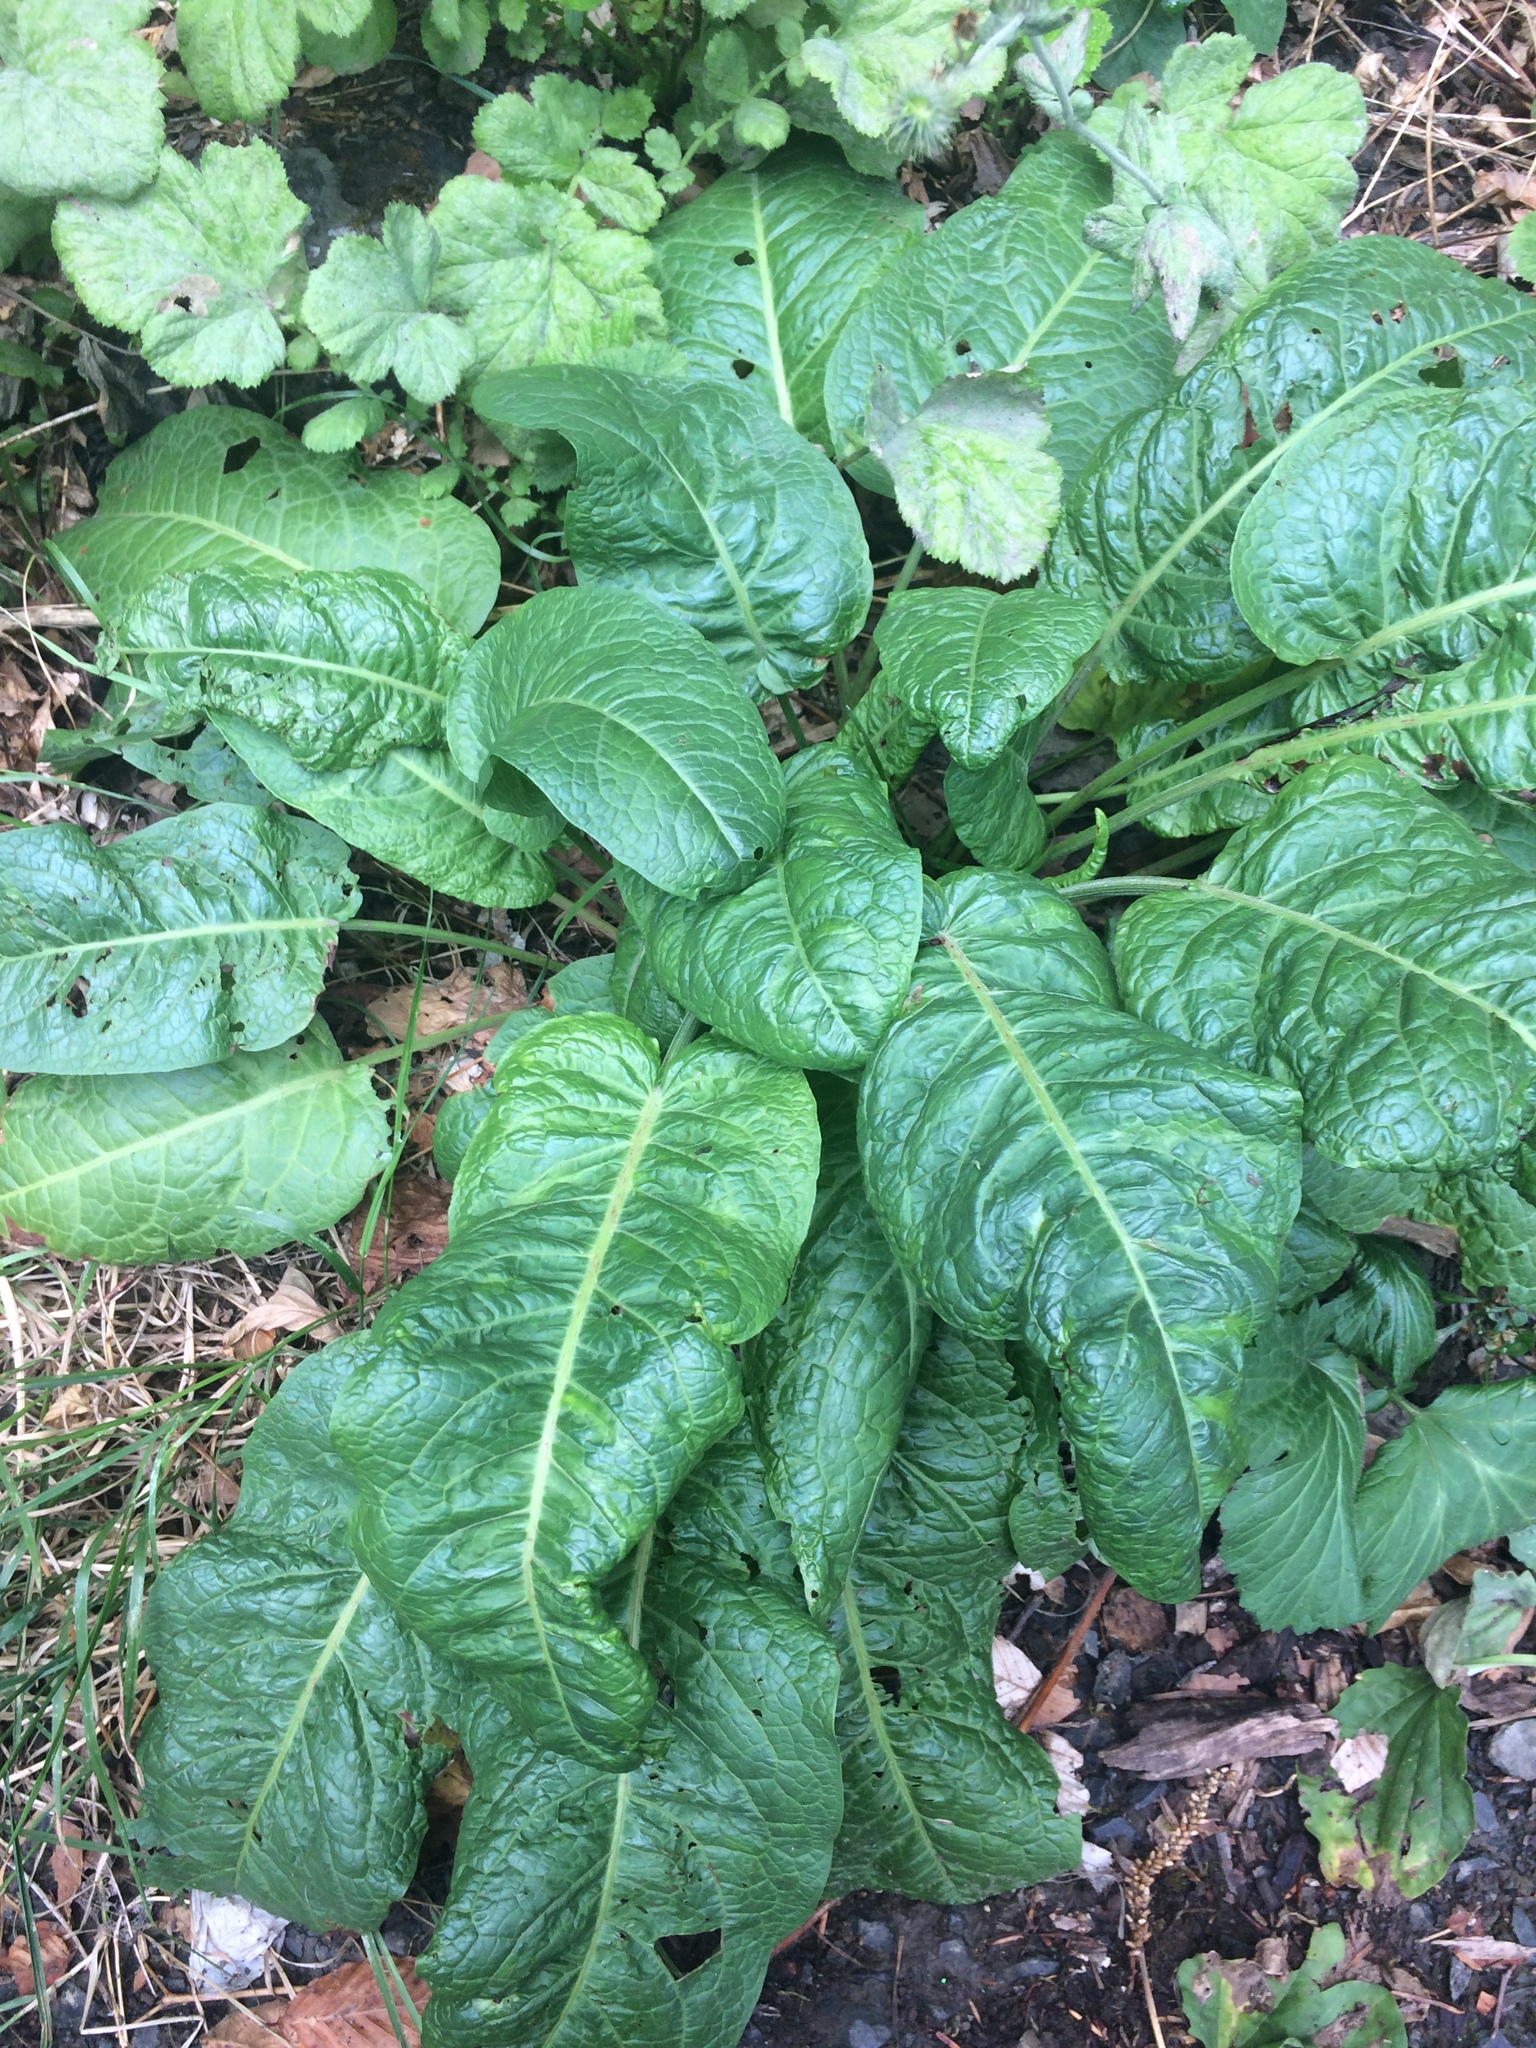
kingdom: Plantae
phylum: Tracheophyta
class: Magnoliopsida
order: Caryophyllales
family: Polygonaceae
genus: Rumex
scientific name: Rumex crispus
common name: Curled dock
